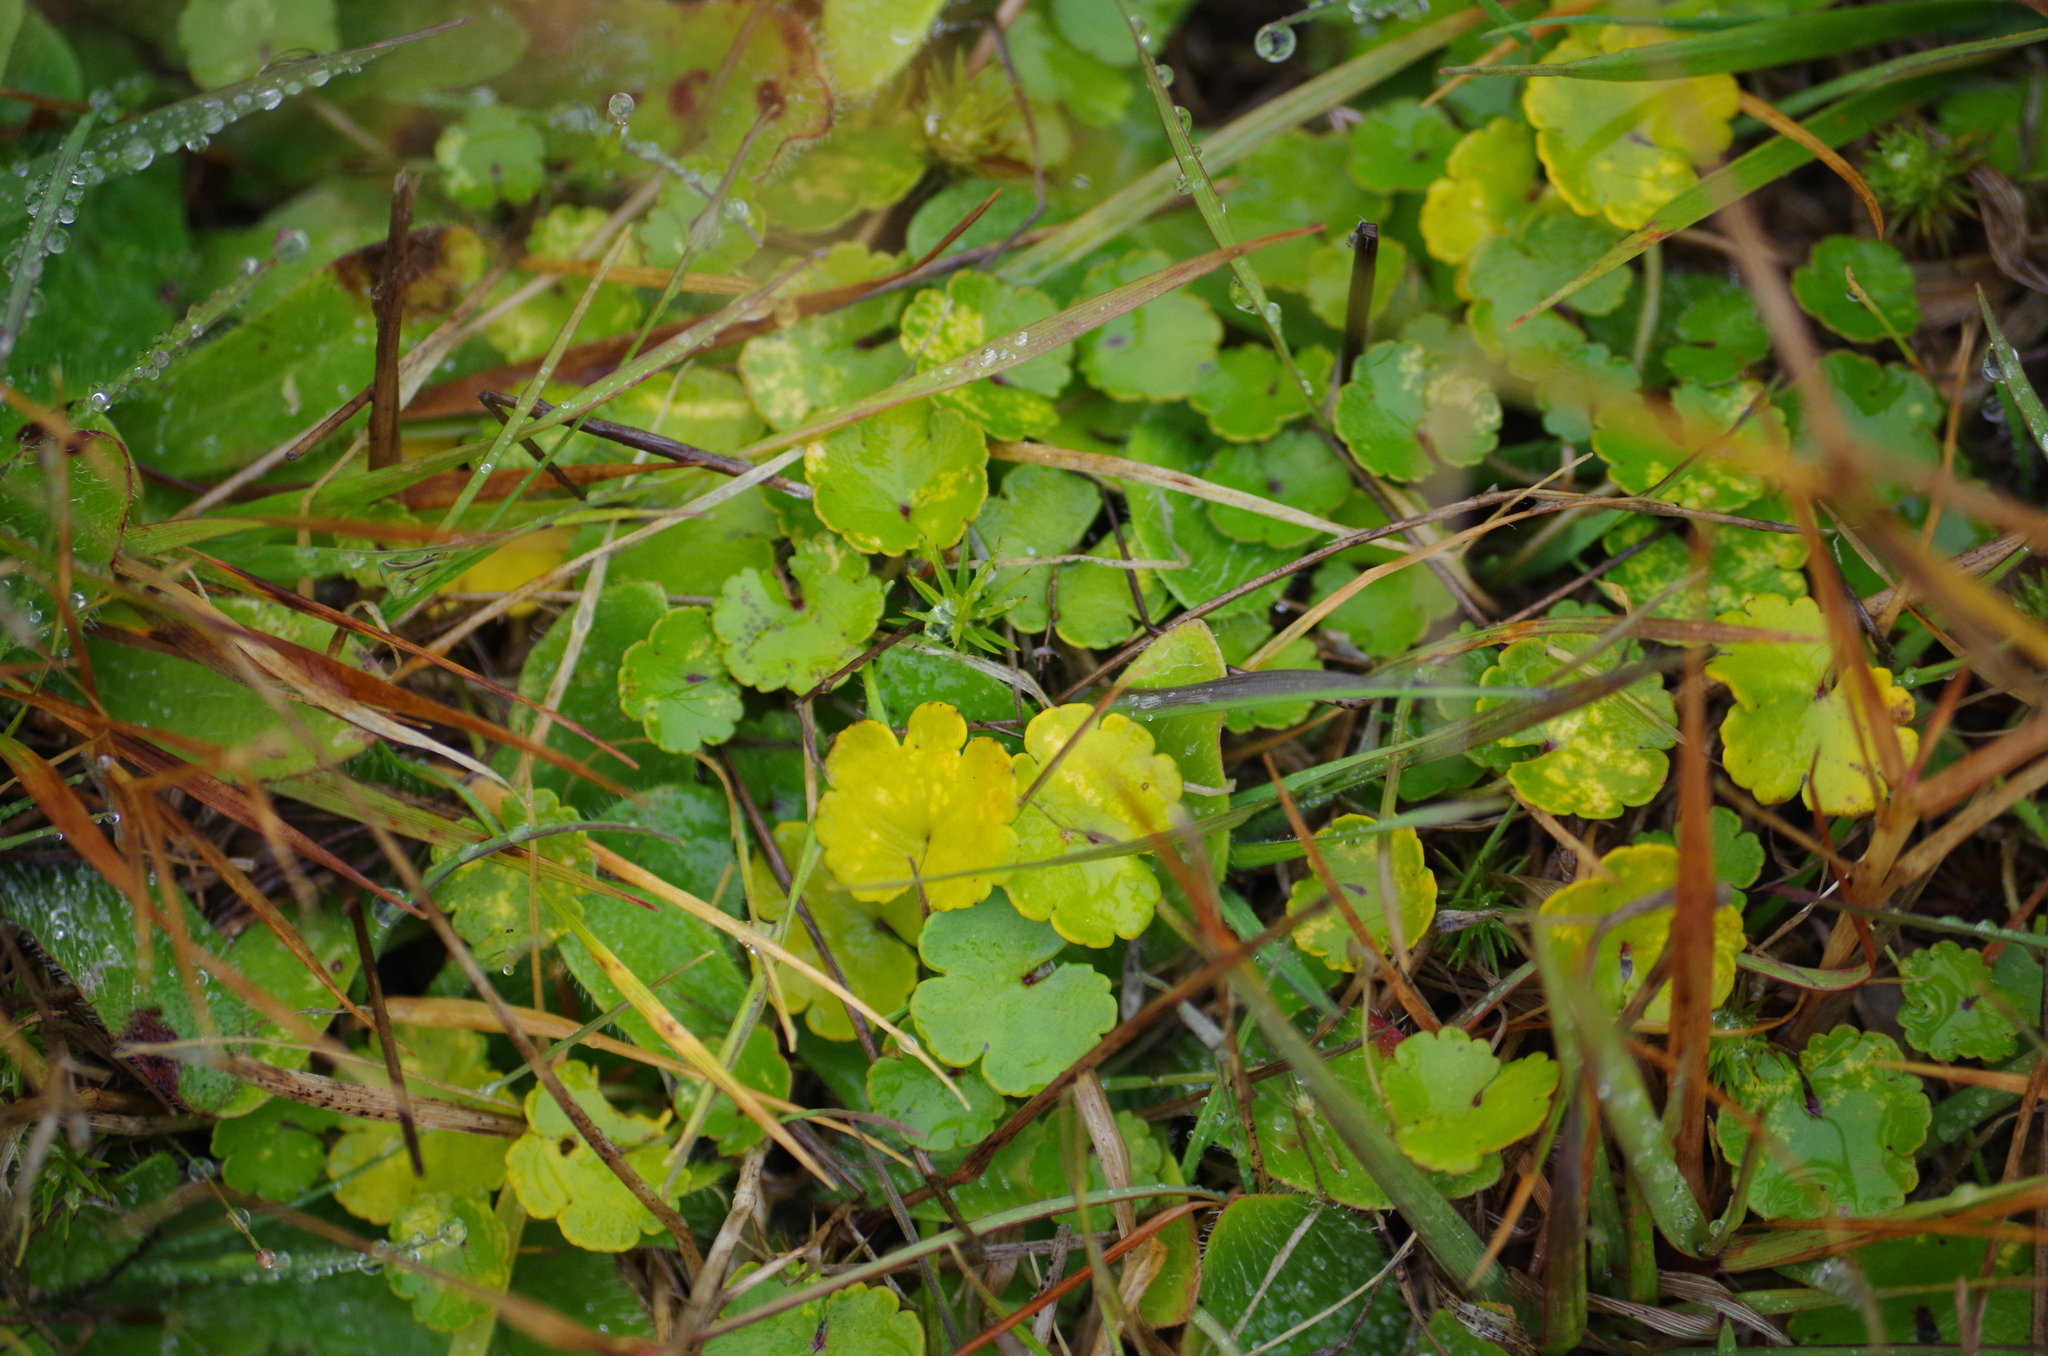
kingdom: Plantae
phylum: Tracheophyta
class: Magnoliopsida
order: Apiales
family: Araliaceae
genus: Hydrocotyle
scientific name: Hydrocotyle microphylla
